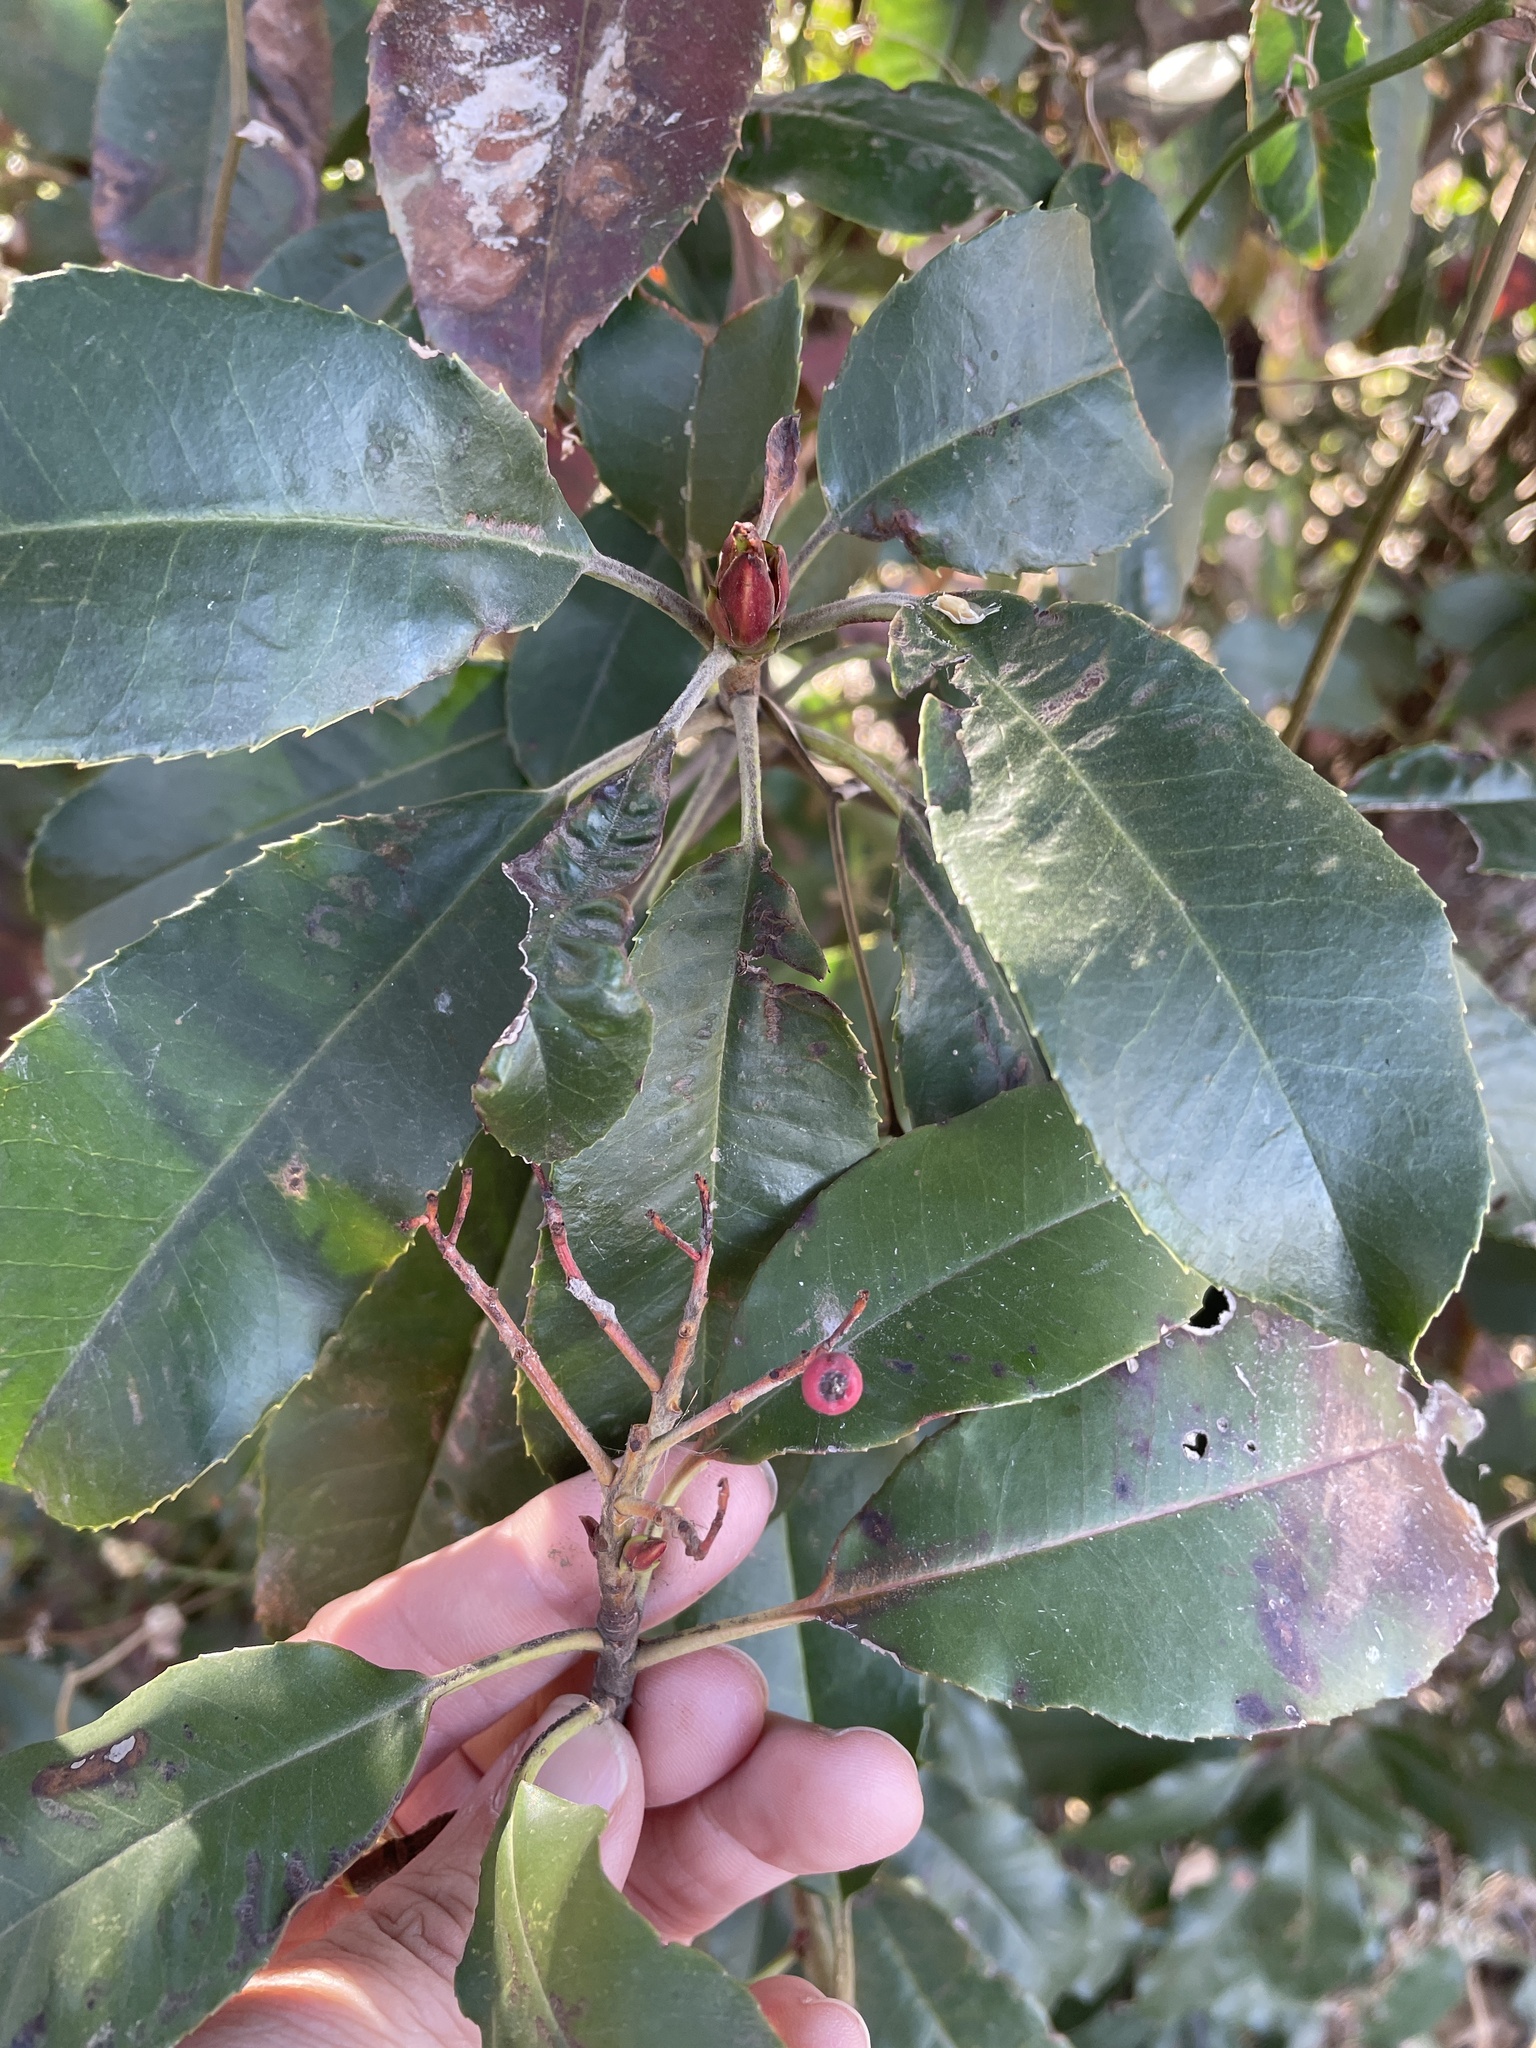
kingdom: Plantae
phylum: Tracheophyta
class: Magnoliopsida
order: Rosales
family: Rosaceae
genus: Photinia
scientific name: Photinia serratifolia
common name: Taiwanese photinia
